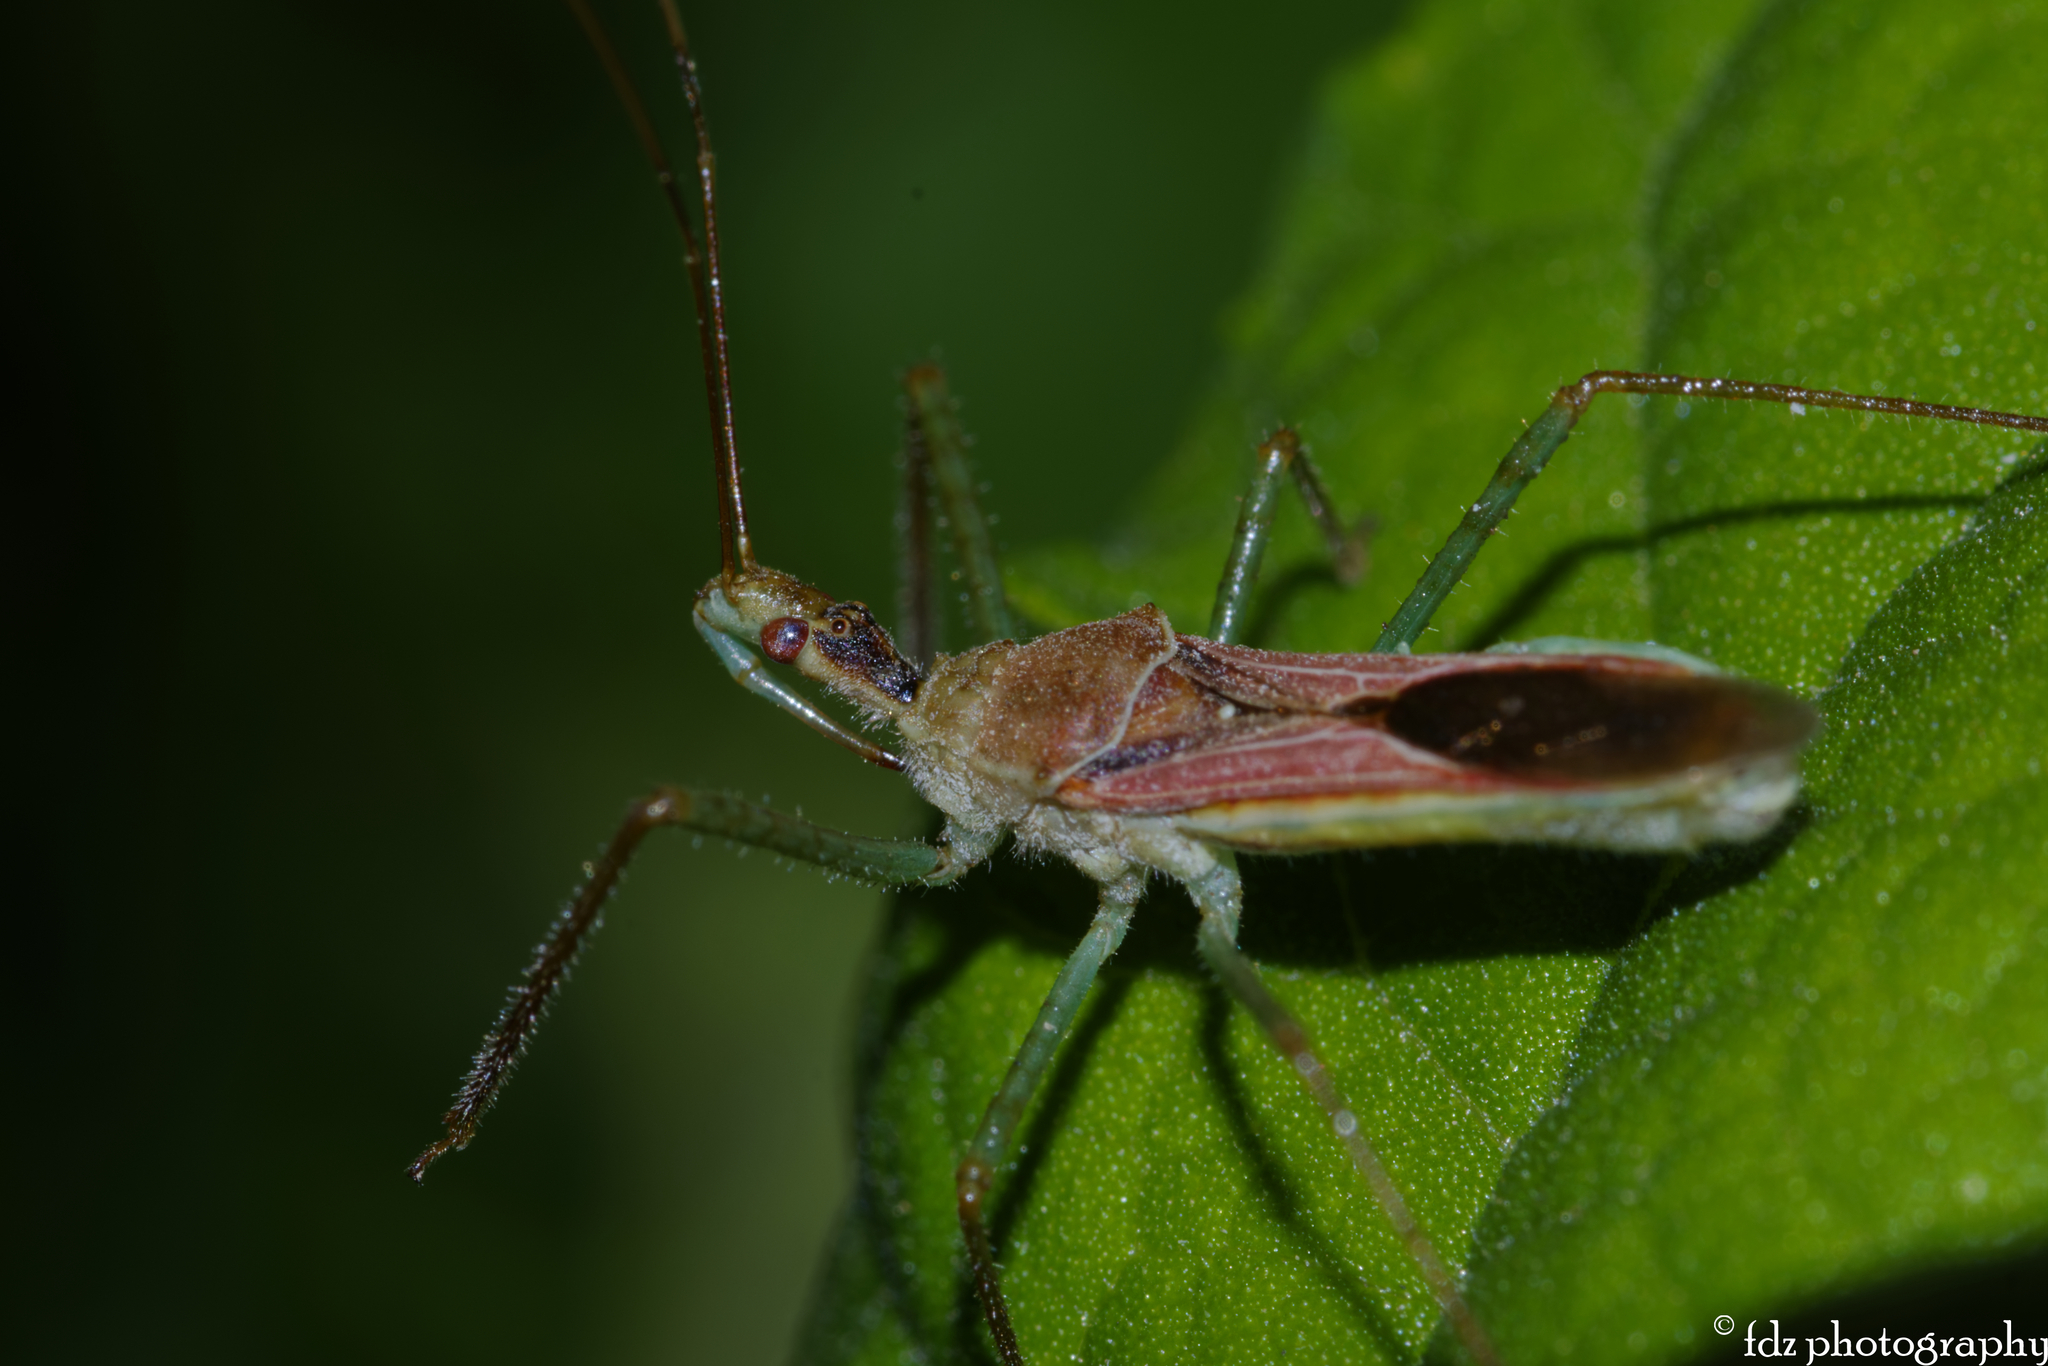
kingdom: Animalia
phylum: Arthropoda
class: Insecta
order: Hemiptera
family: Reduviidae
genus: Zelus
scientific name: Zelus renardii
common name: Assassin bug
